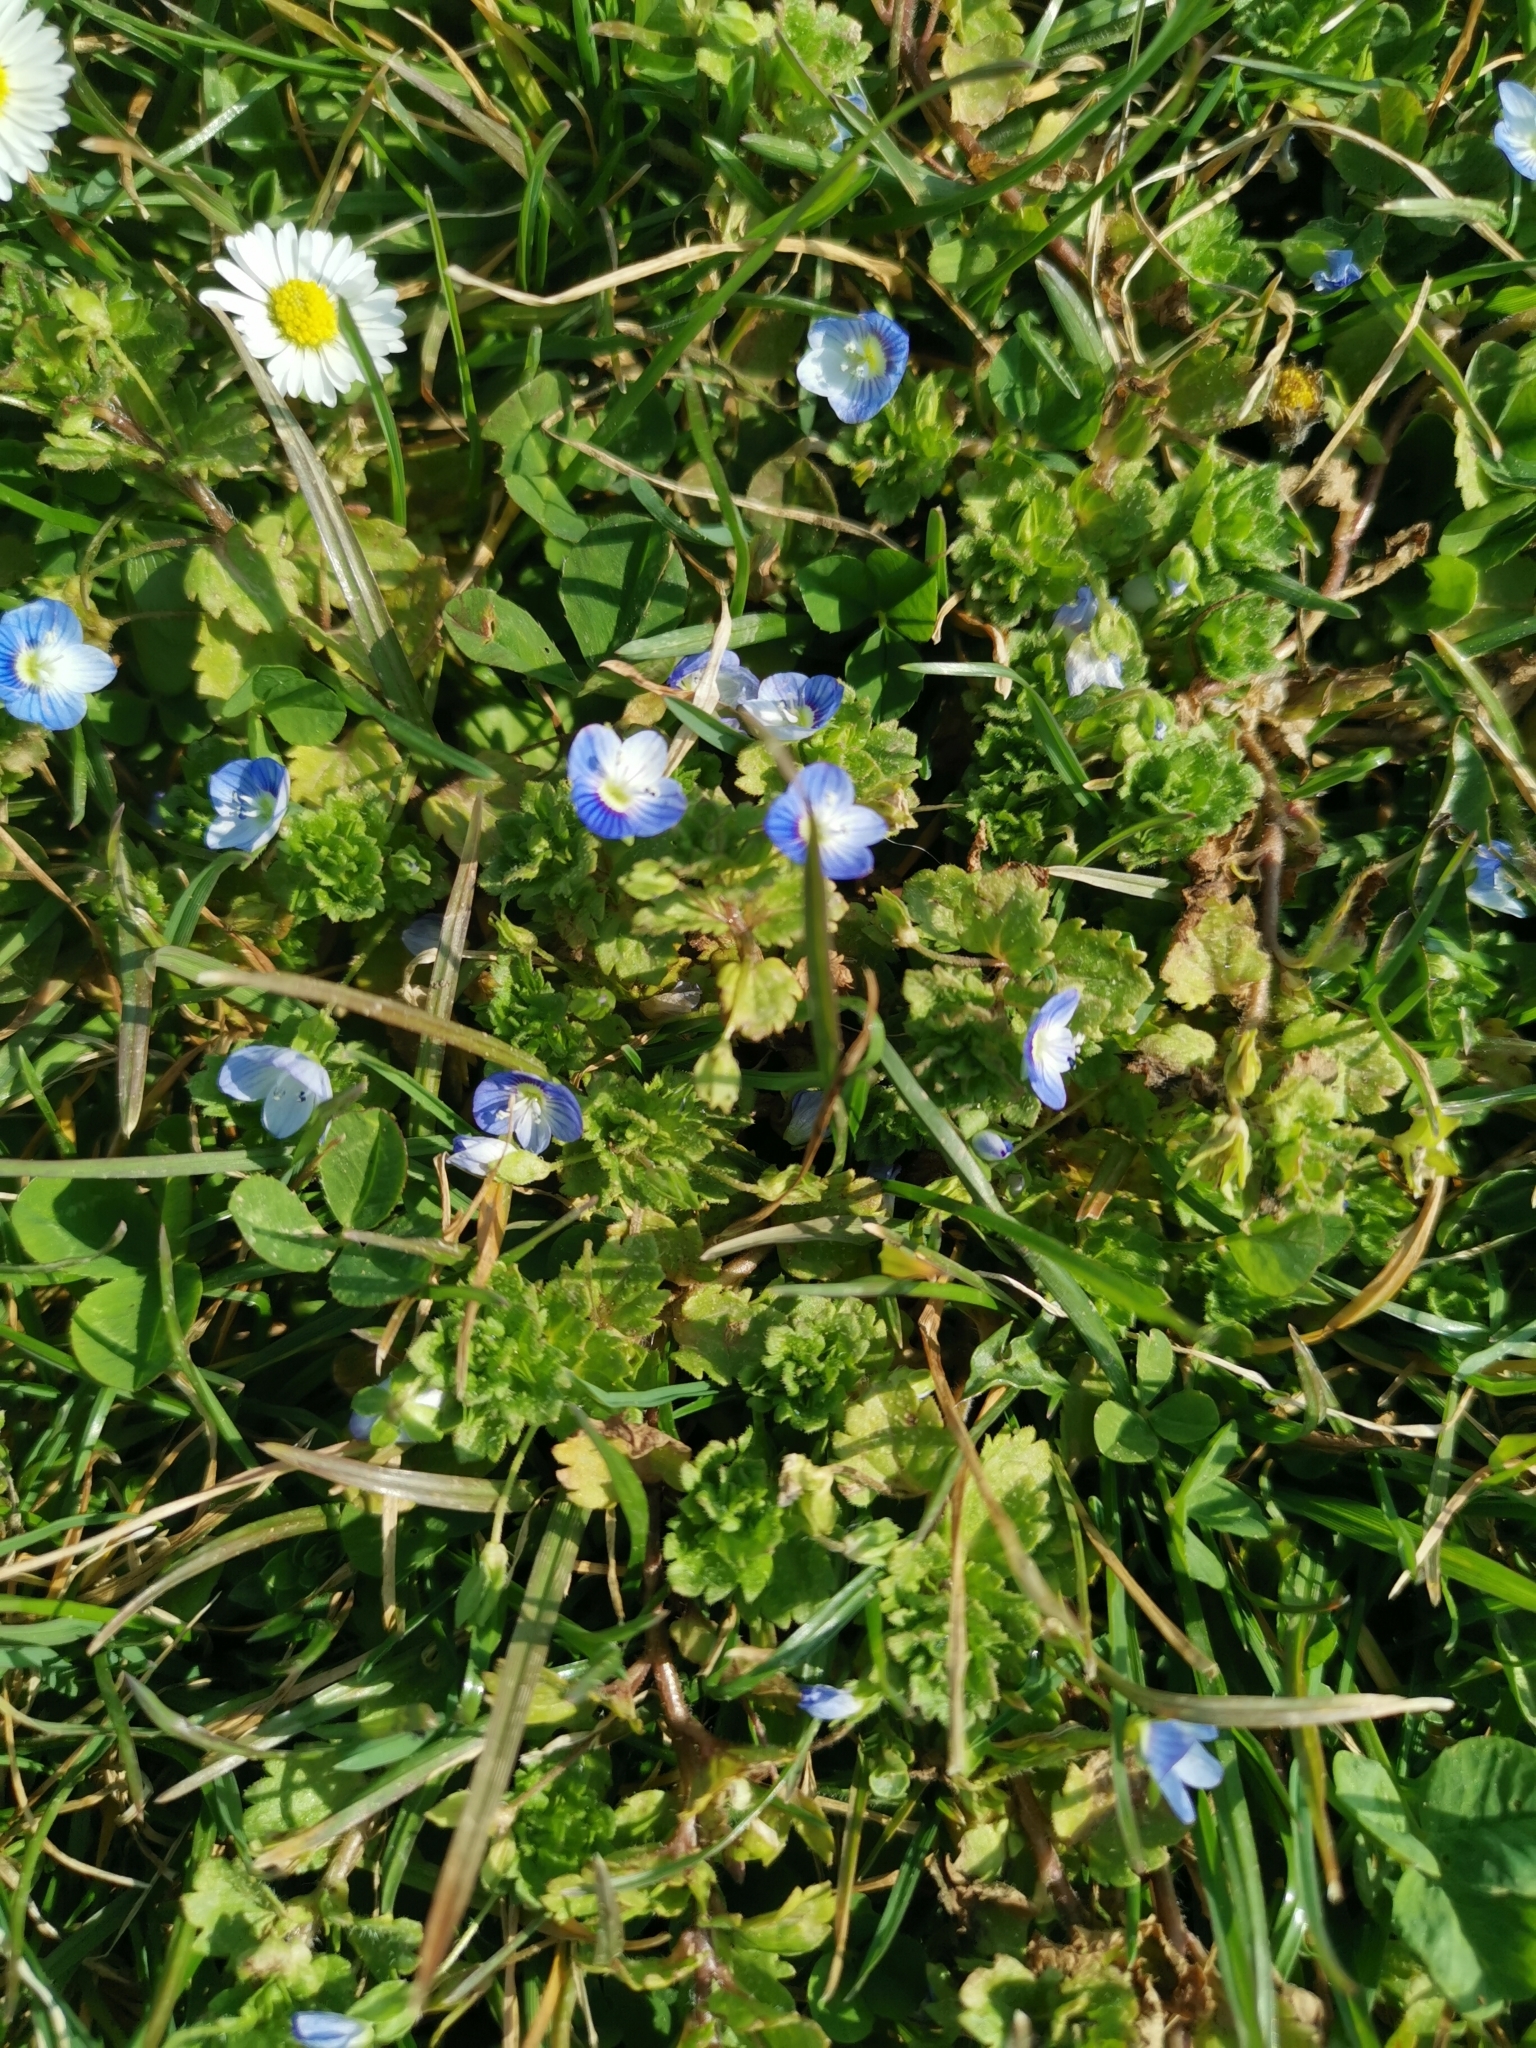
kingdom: Plantae
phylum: Tracheophyta
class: Magnoliopsida
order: Lamiales
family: Plantaginaceae
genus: Veronica
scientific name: Veronica persica
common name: Common field-speedwell
